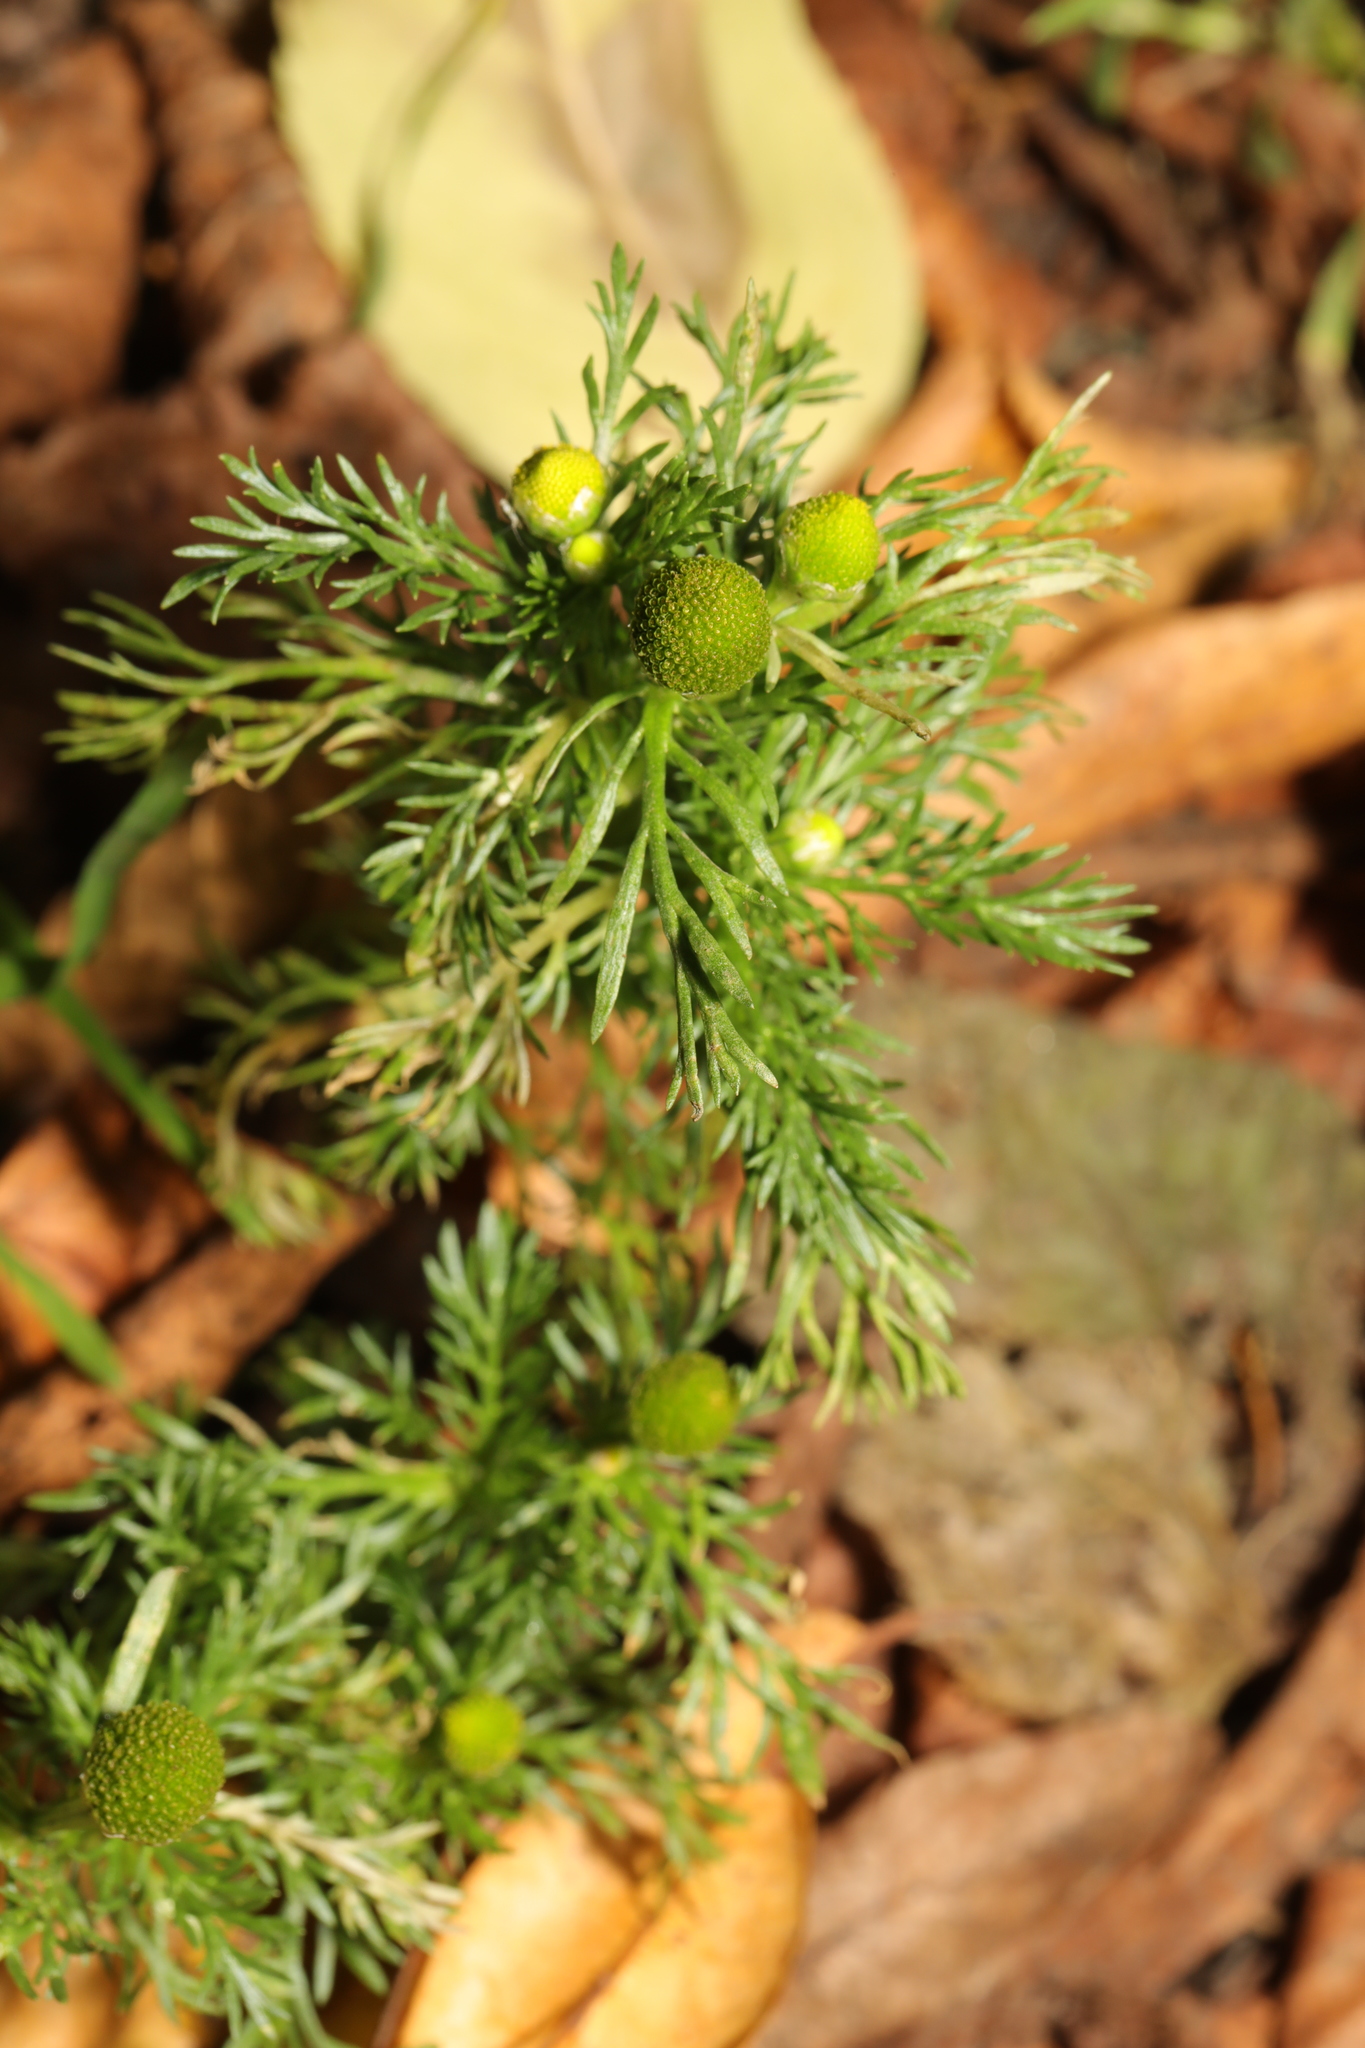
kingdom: Plantae
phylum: Tracheophyta
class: Magnoliopsida
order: Asterales
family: Asteraceae
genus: Matricaria
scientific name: Matricaria discoidea
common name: Disc mayweed
